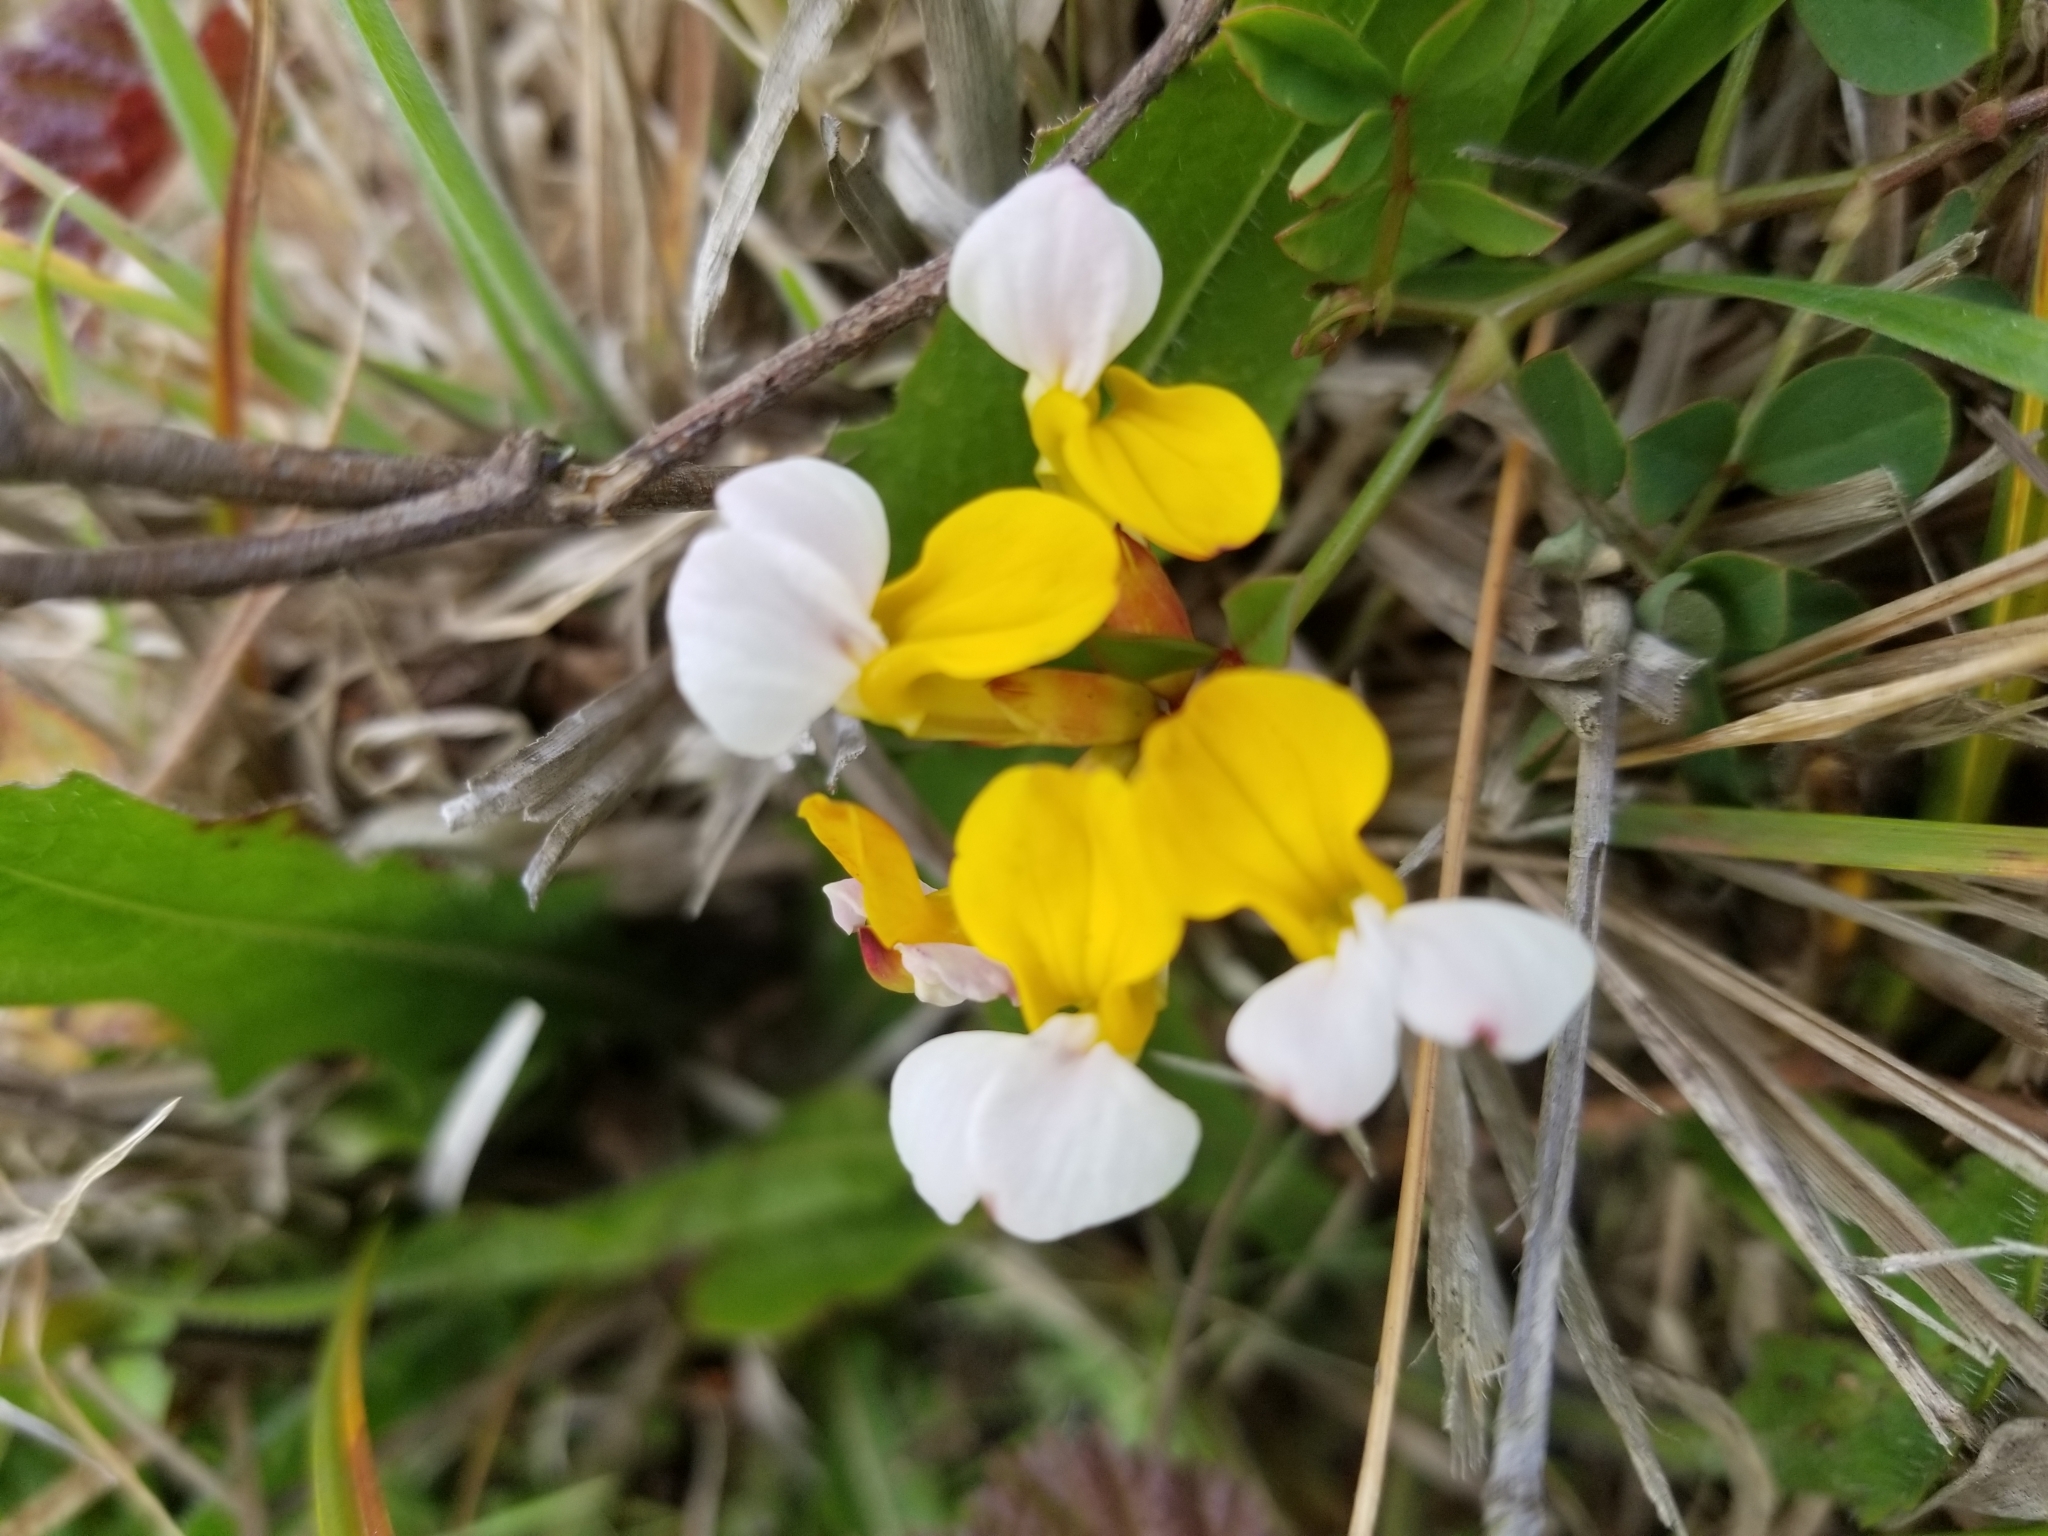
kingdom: Plantae
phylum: Tracheophyta
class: Magnoliopsida
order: Fabales
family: Fabaceae
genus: Hosackia
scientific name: Hosackia gracilis
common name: Seaside bird's-foot lotus
